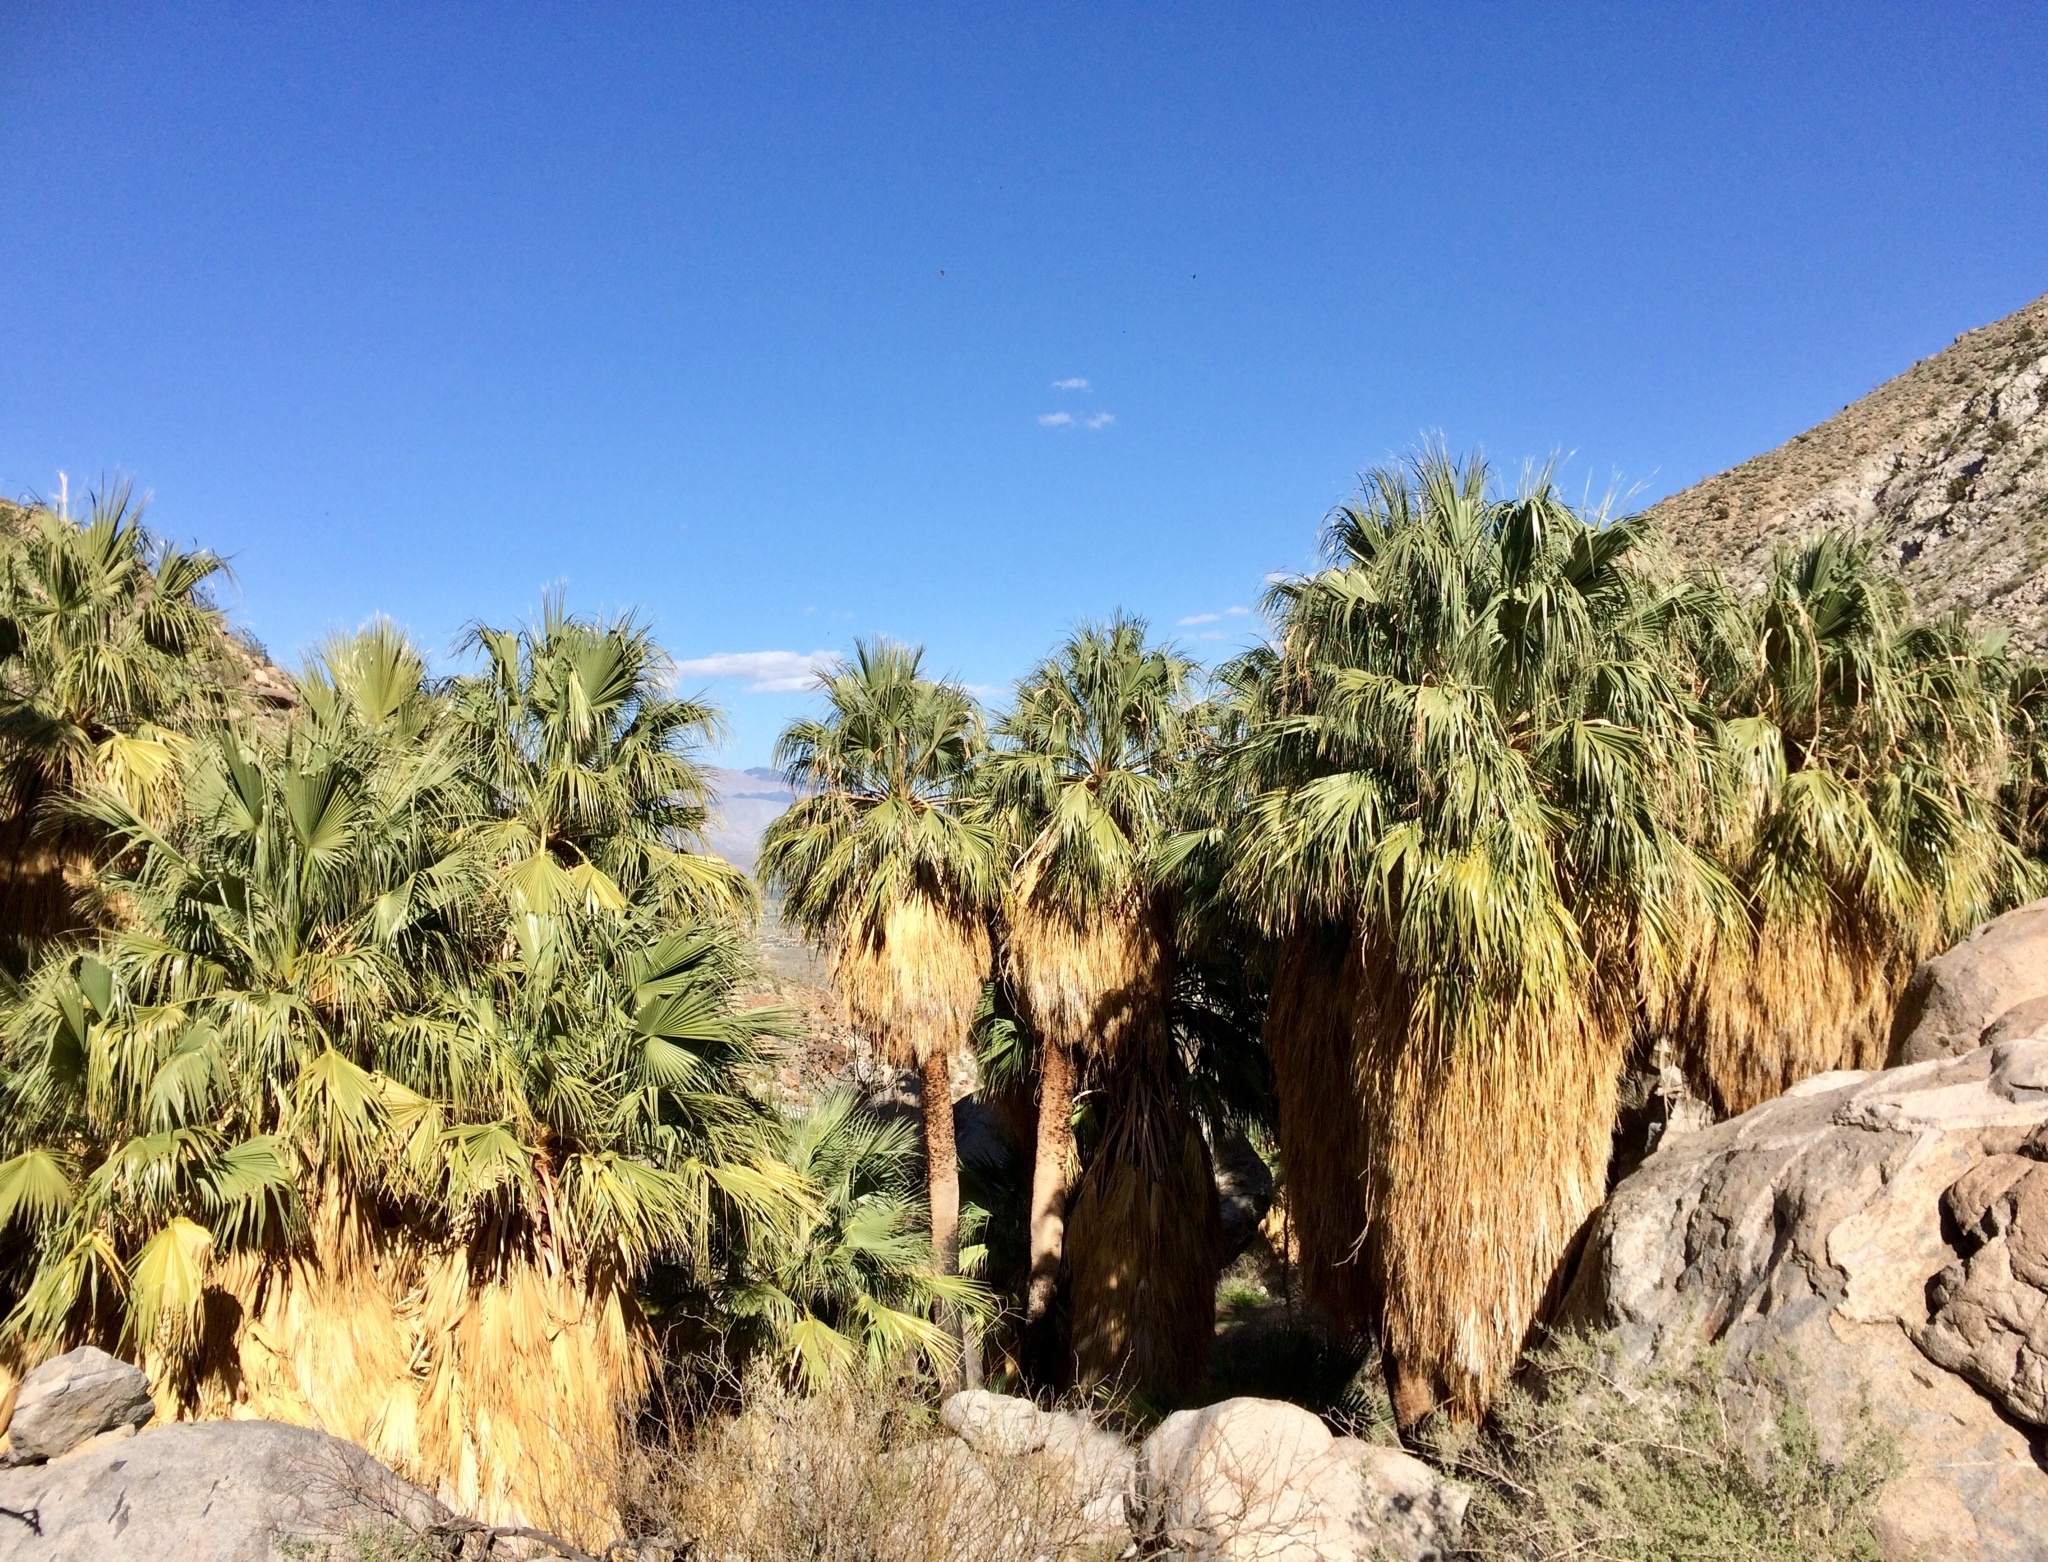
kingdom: Plantae
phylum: Tracheophyta
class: Liliopsida
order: Arecales
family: Arecaceae
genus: Washingtonia
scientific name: Washingtonia filifera
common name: California fan palm
